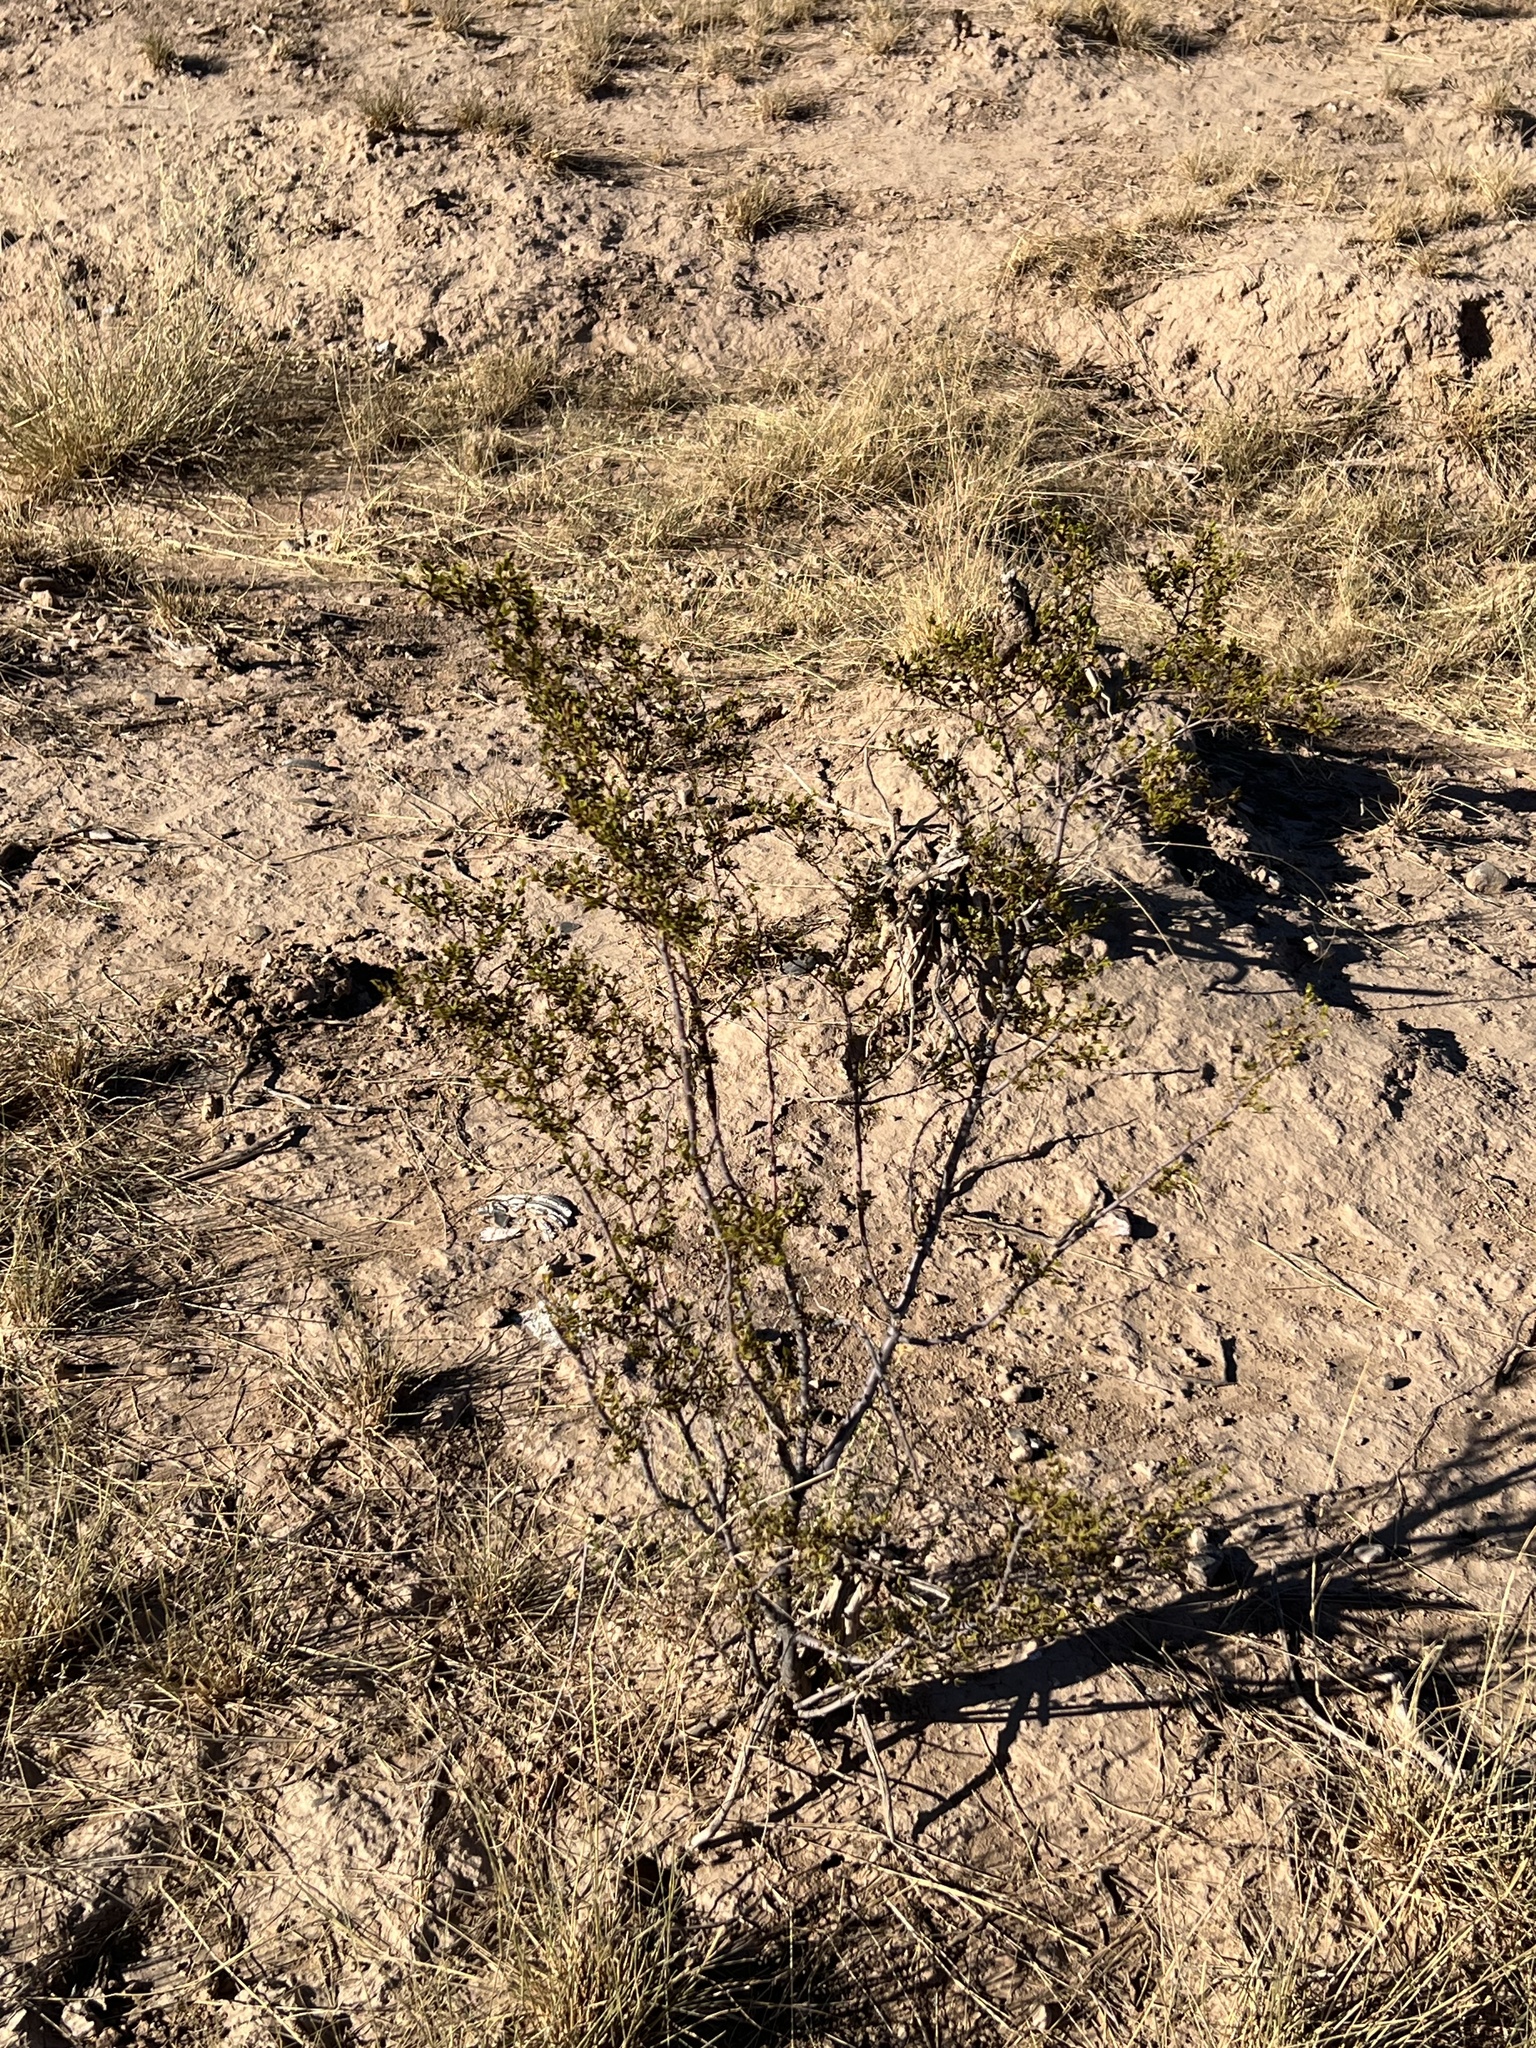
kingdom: Plantae
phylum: Tracheophyta
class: Magnoliopsida
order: Zygophyllales
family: Zygophyllaceae
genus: Larrea
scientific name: Larrea tridentata
